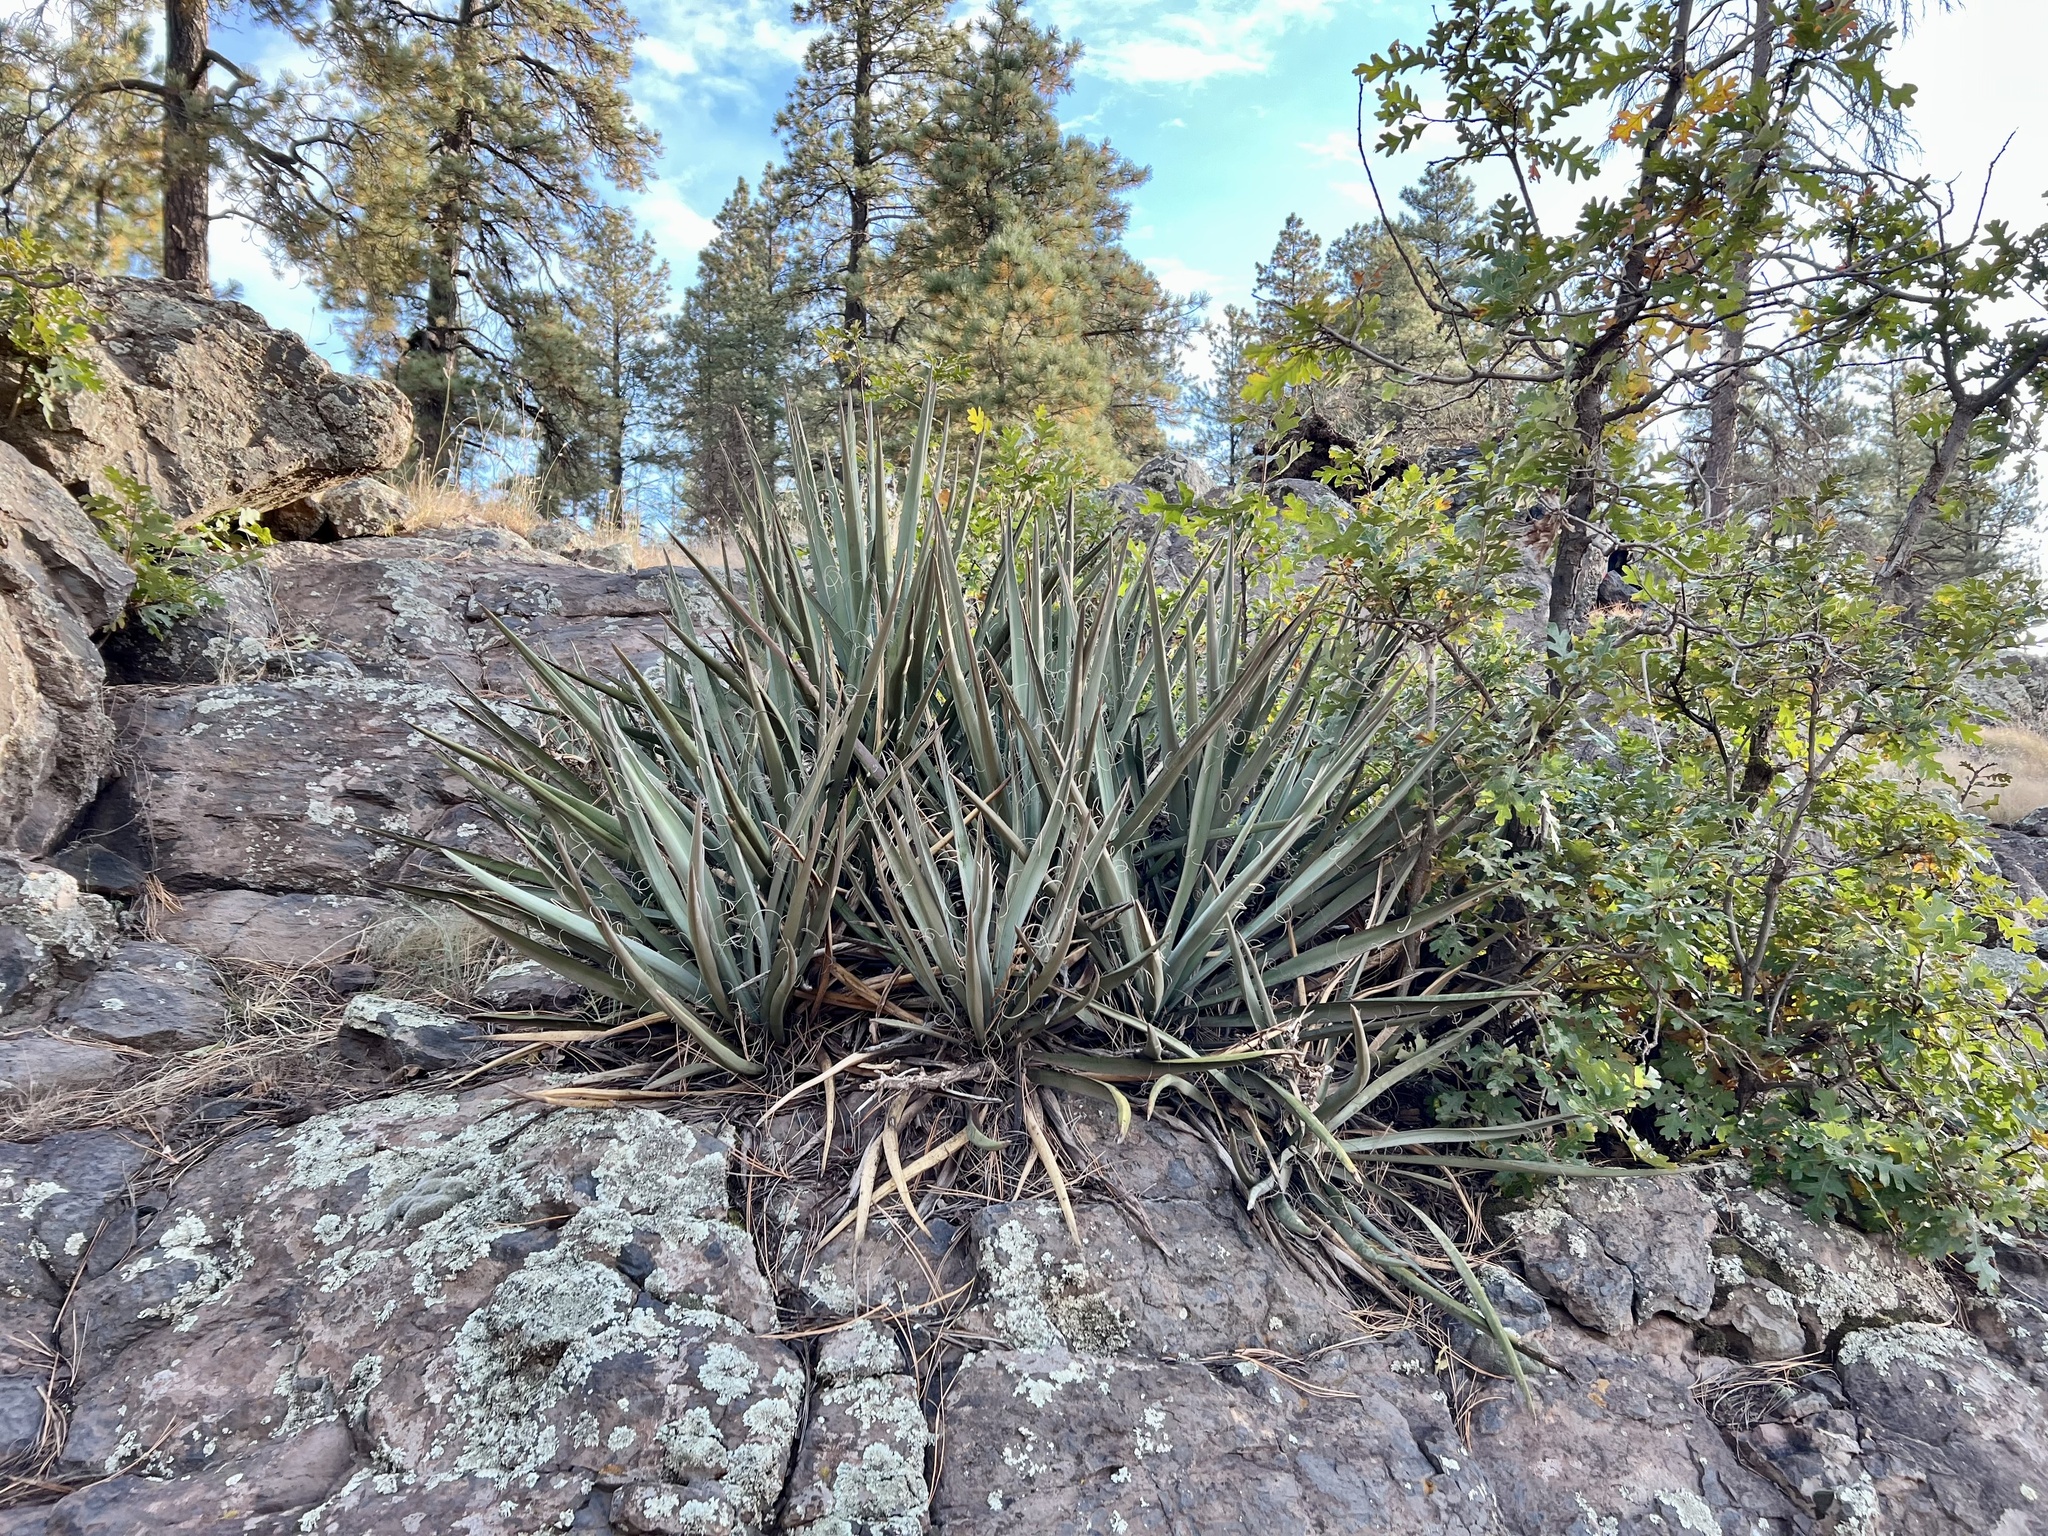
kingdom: Plantae
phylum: Tracheophyta
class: Liliopsida
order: Asparagales
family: Asparagaceae
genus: Yucca
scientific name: Yucca baccata
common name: Banana yucca
